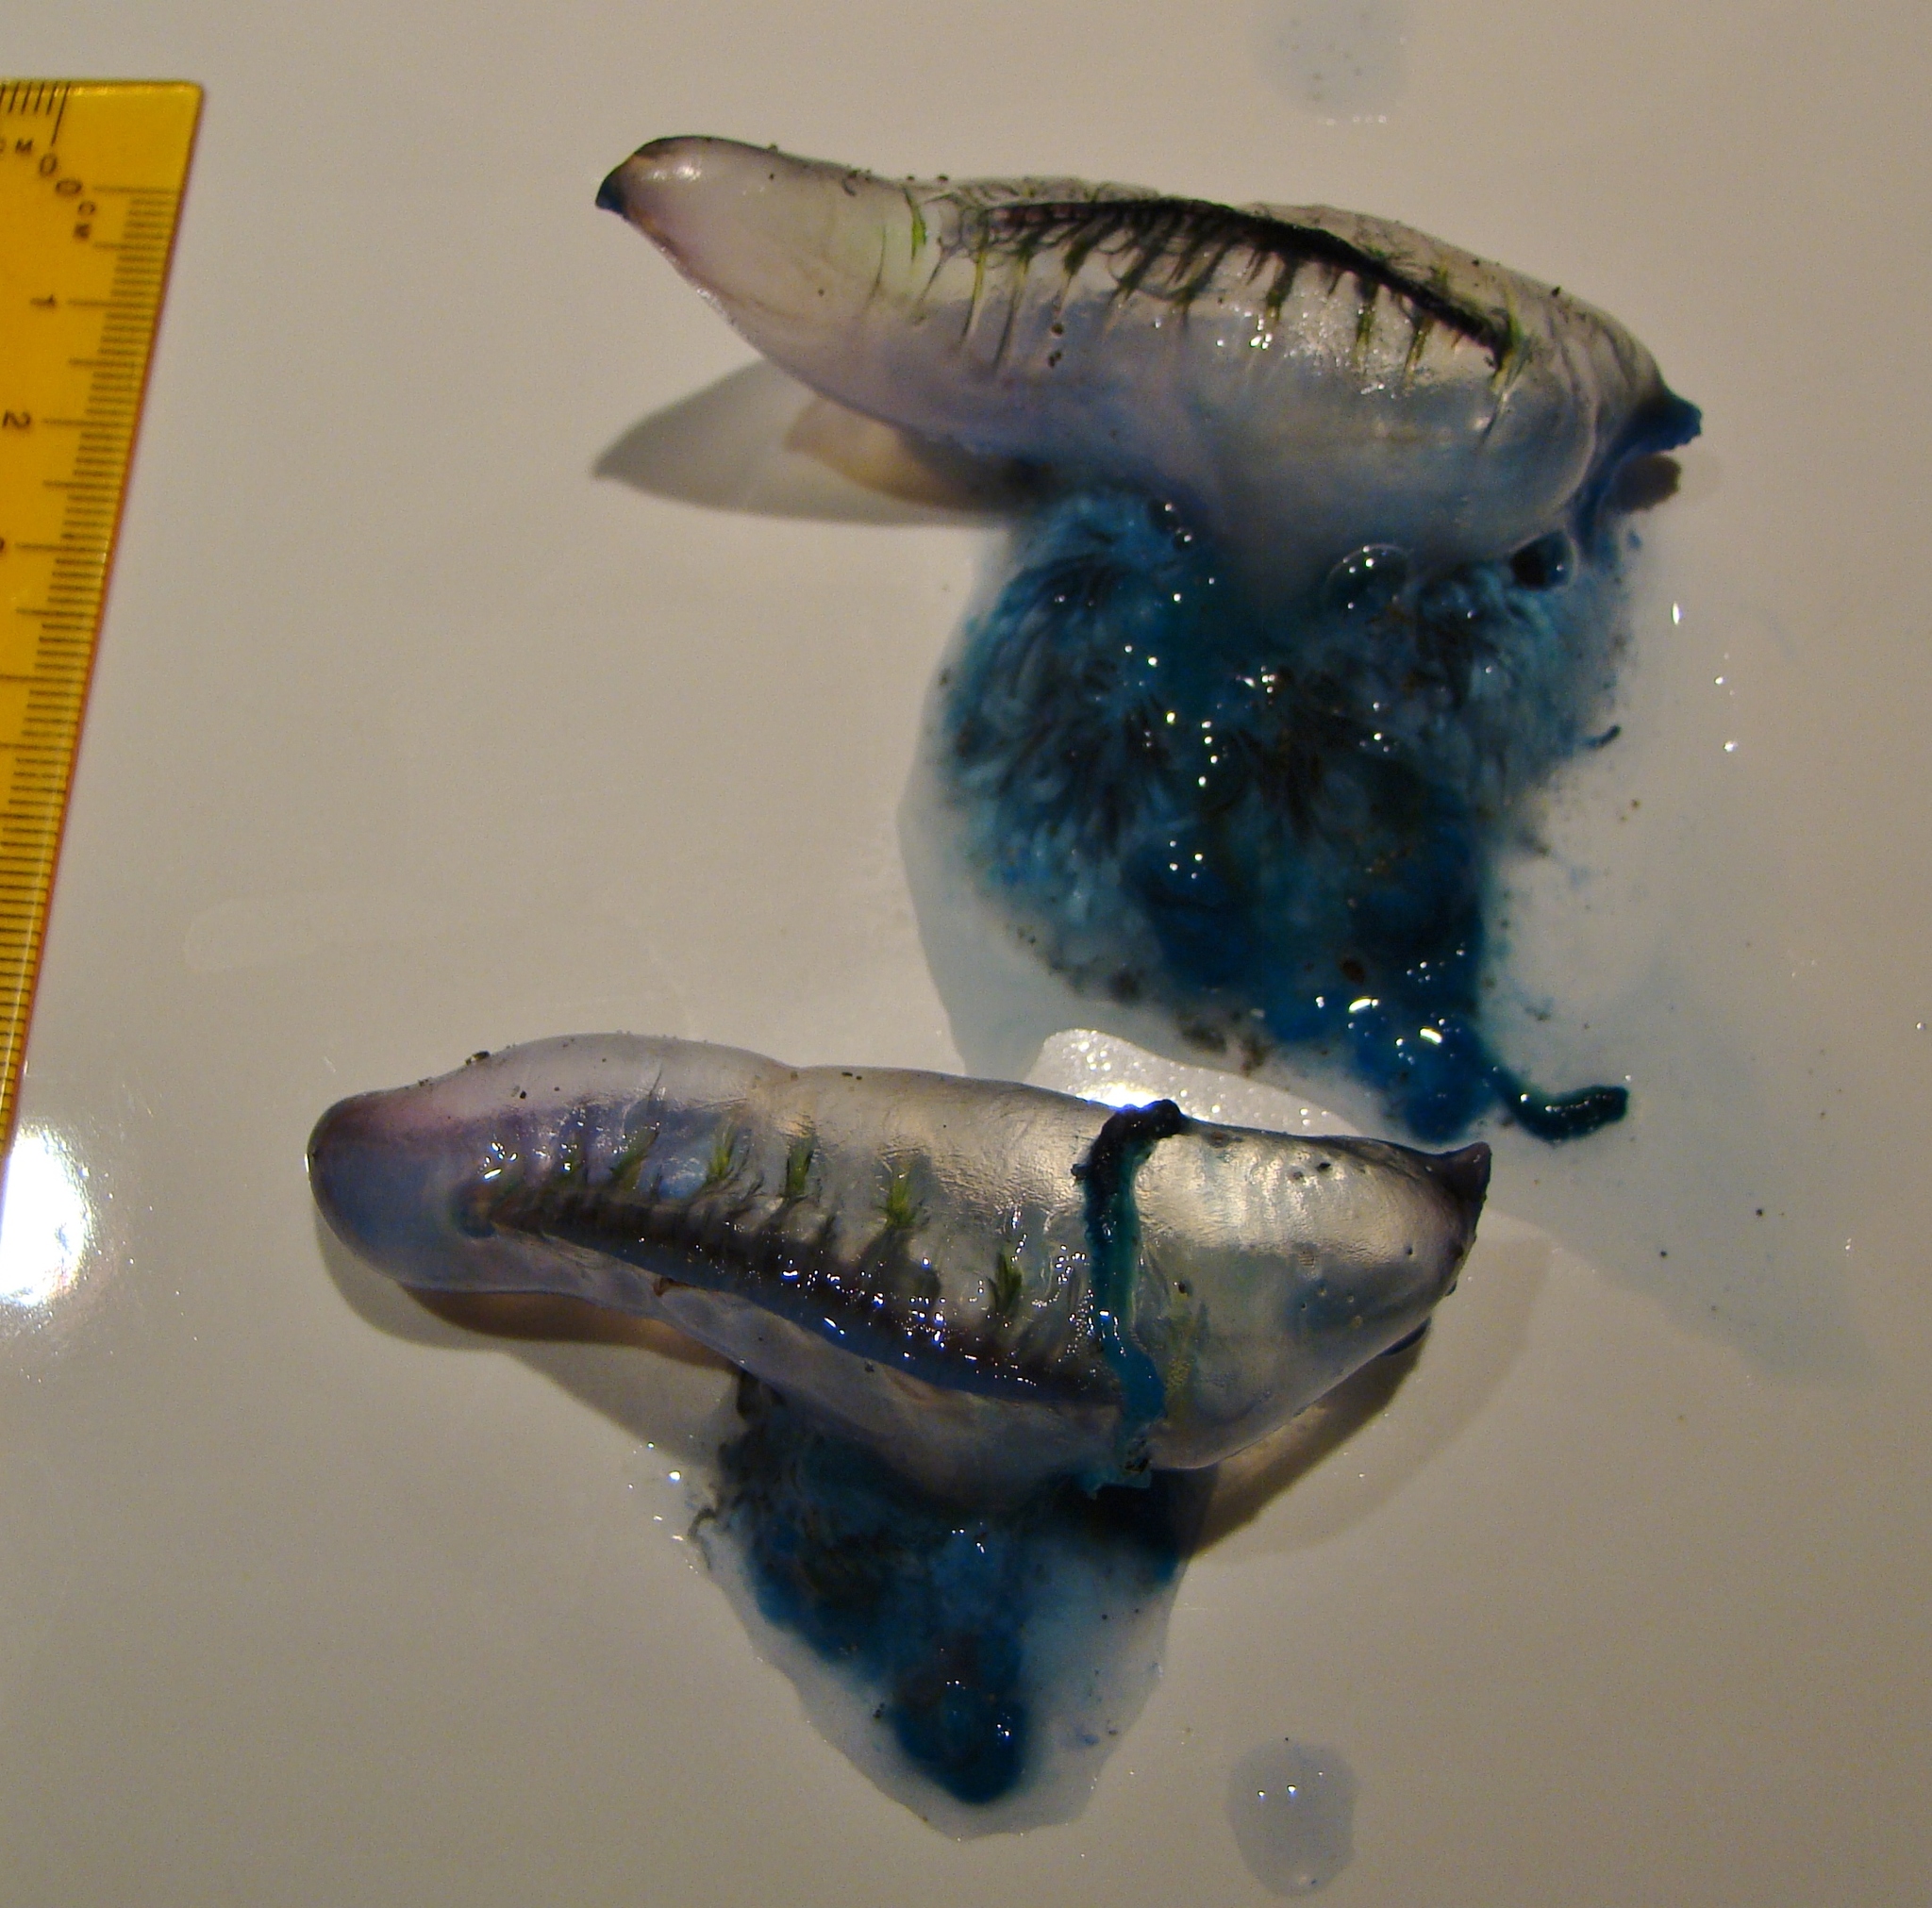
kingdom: Animalia
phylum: Cnidaria
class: Hydrozoa
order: Siphonophorae
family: Physaliidae
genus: Physalia
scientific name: Physalia physalis
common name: Portuguese man-of-war
